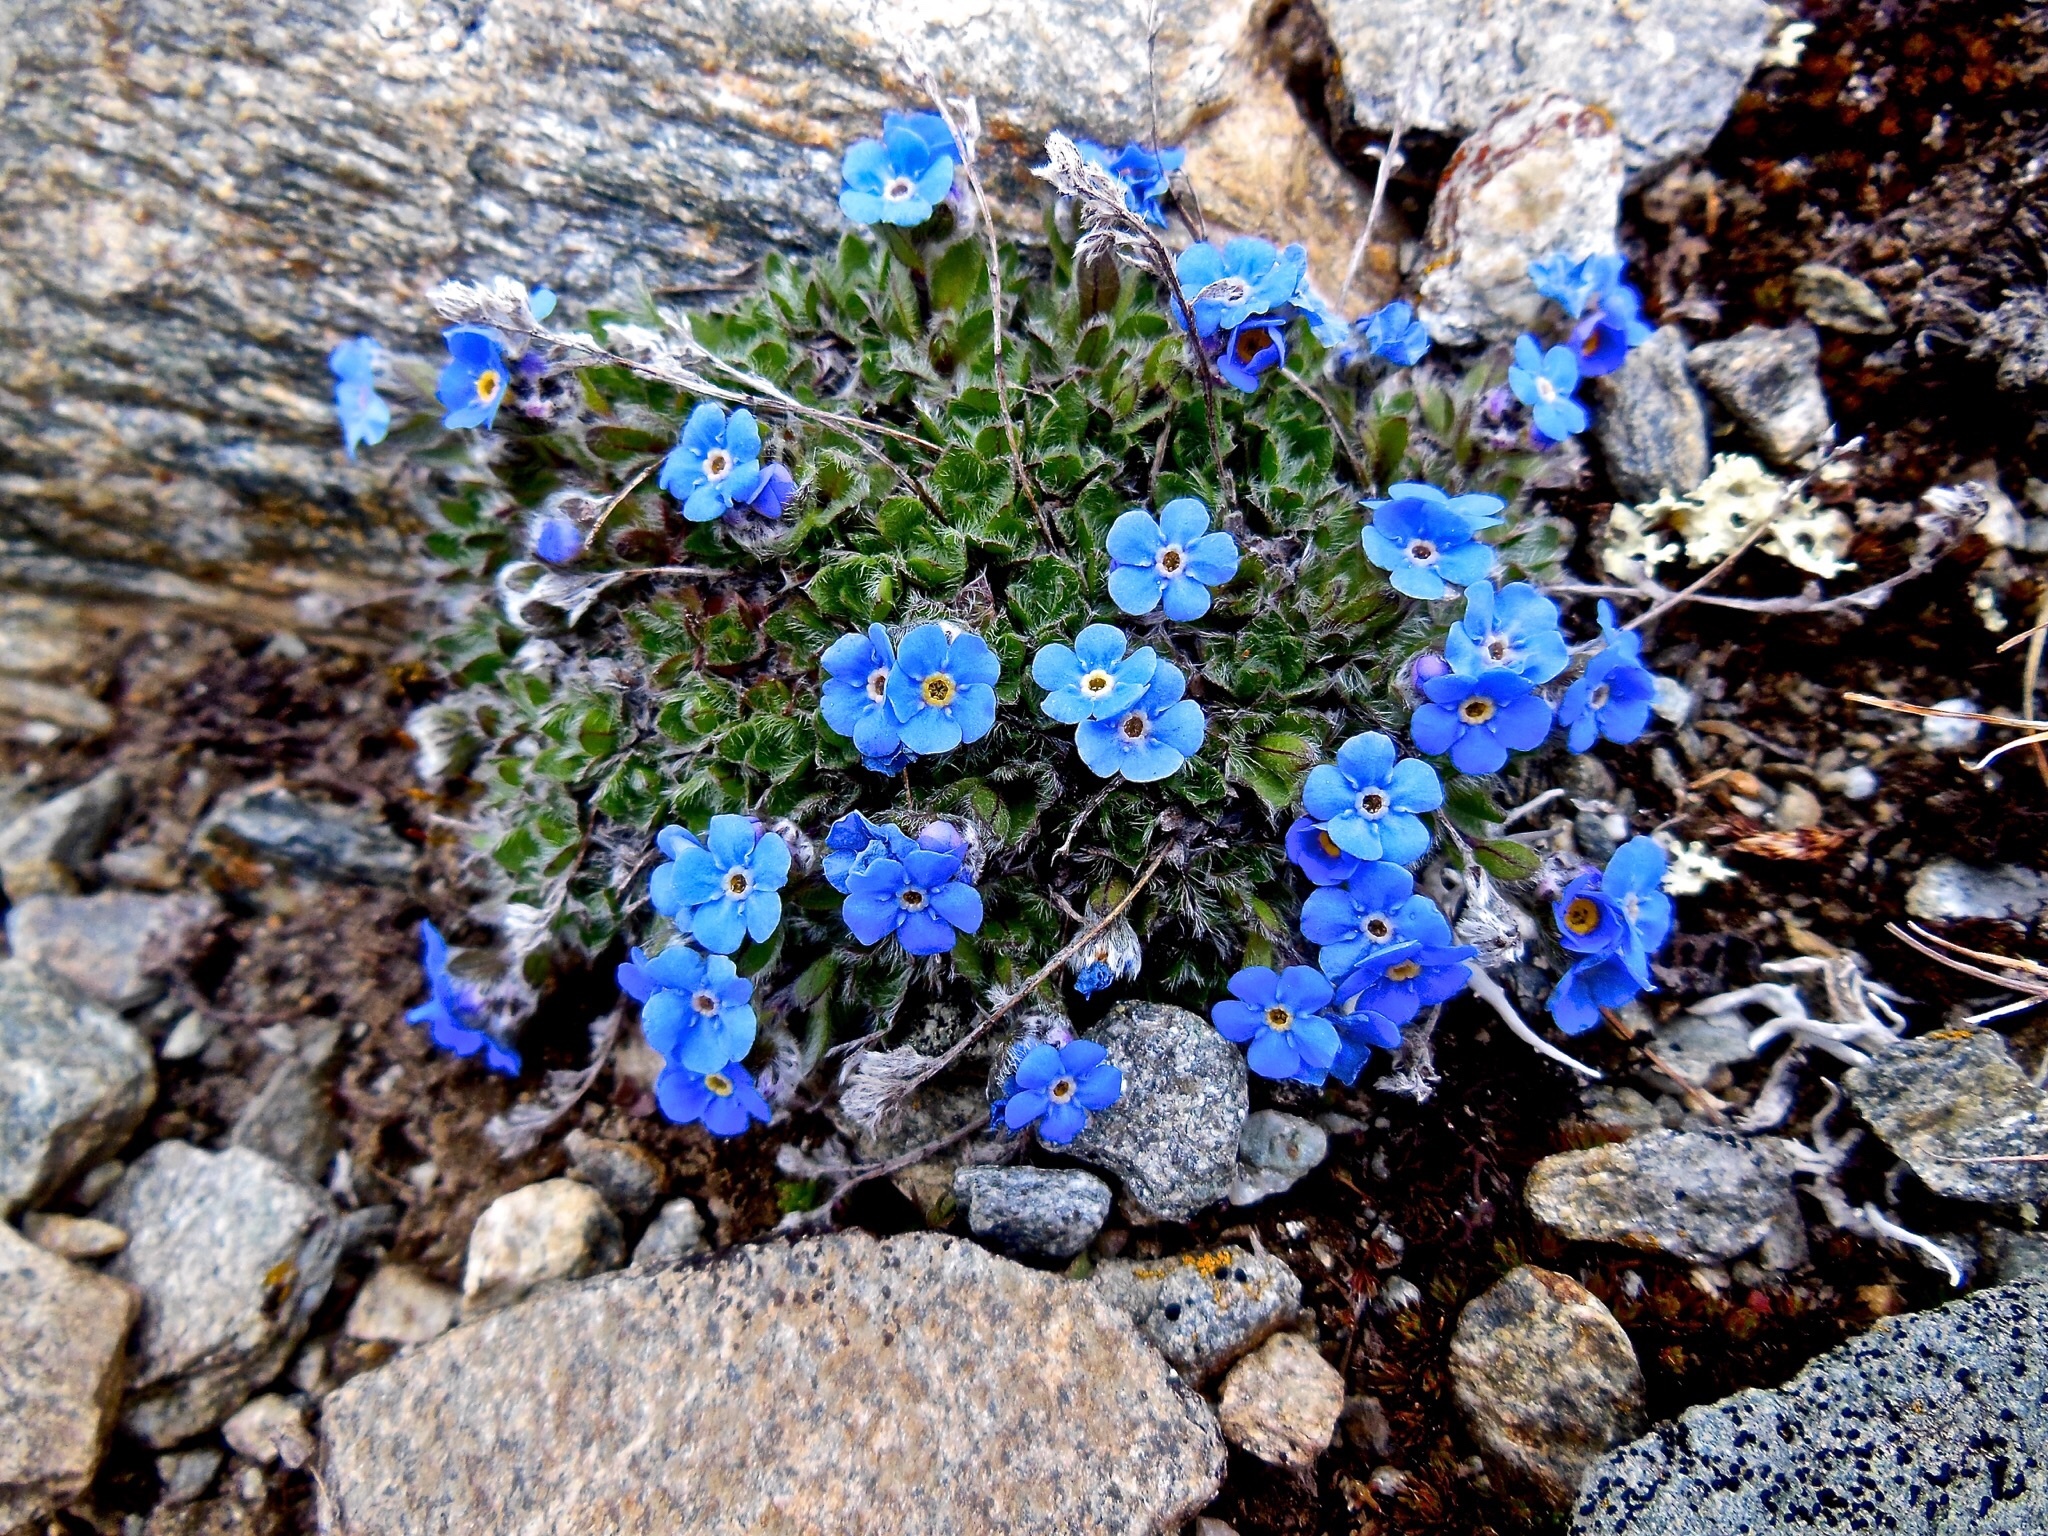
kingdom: Plantae
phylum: Tracheophyta
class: Magnoliopsida
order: Boraginales
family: Boraginaceae
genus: Eritrichium
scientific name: Eritrichium nanum
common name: King-of-the-alps
